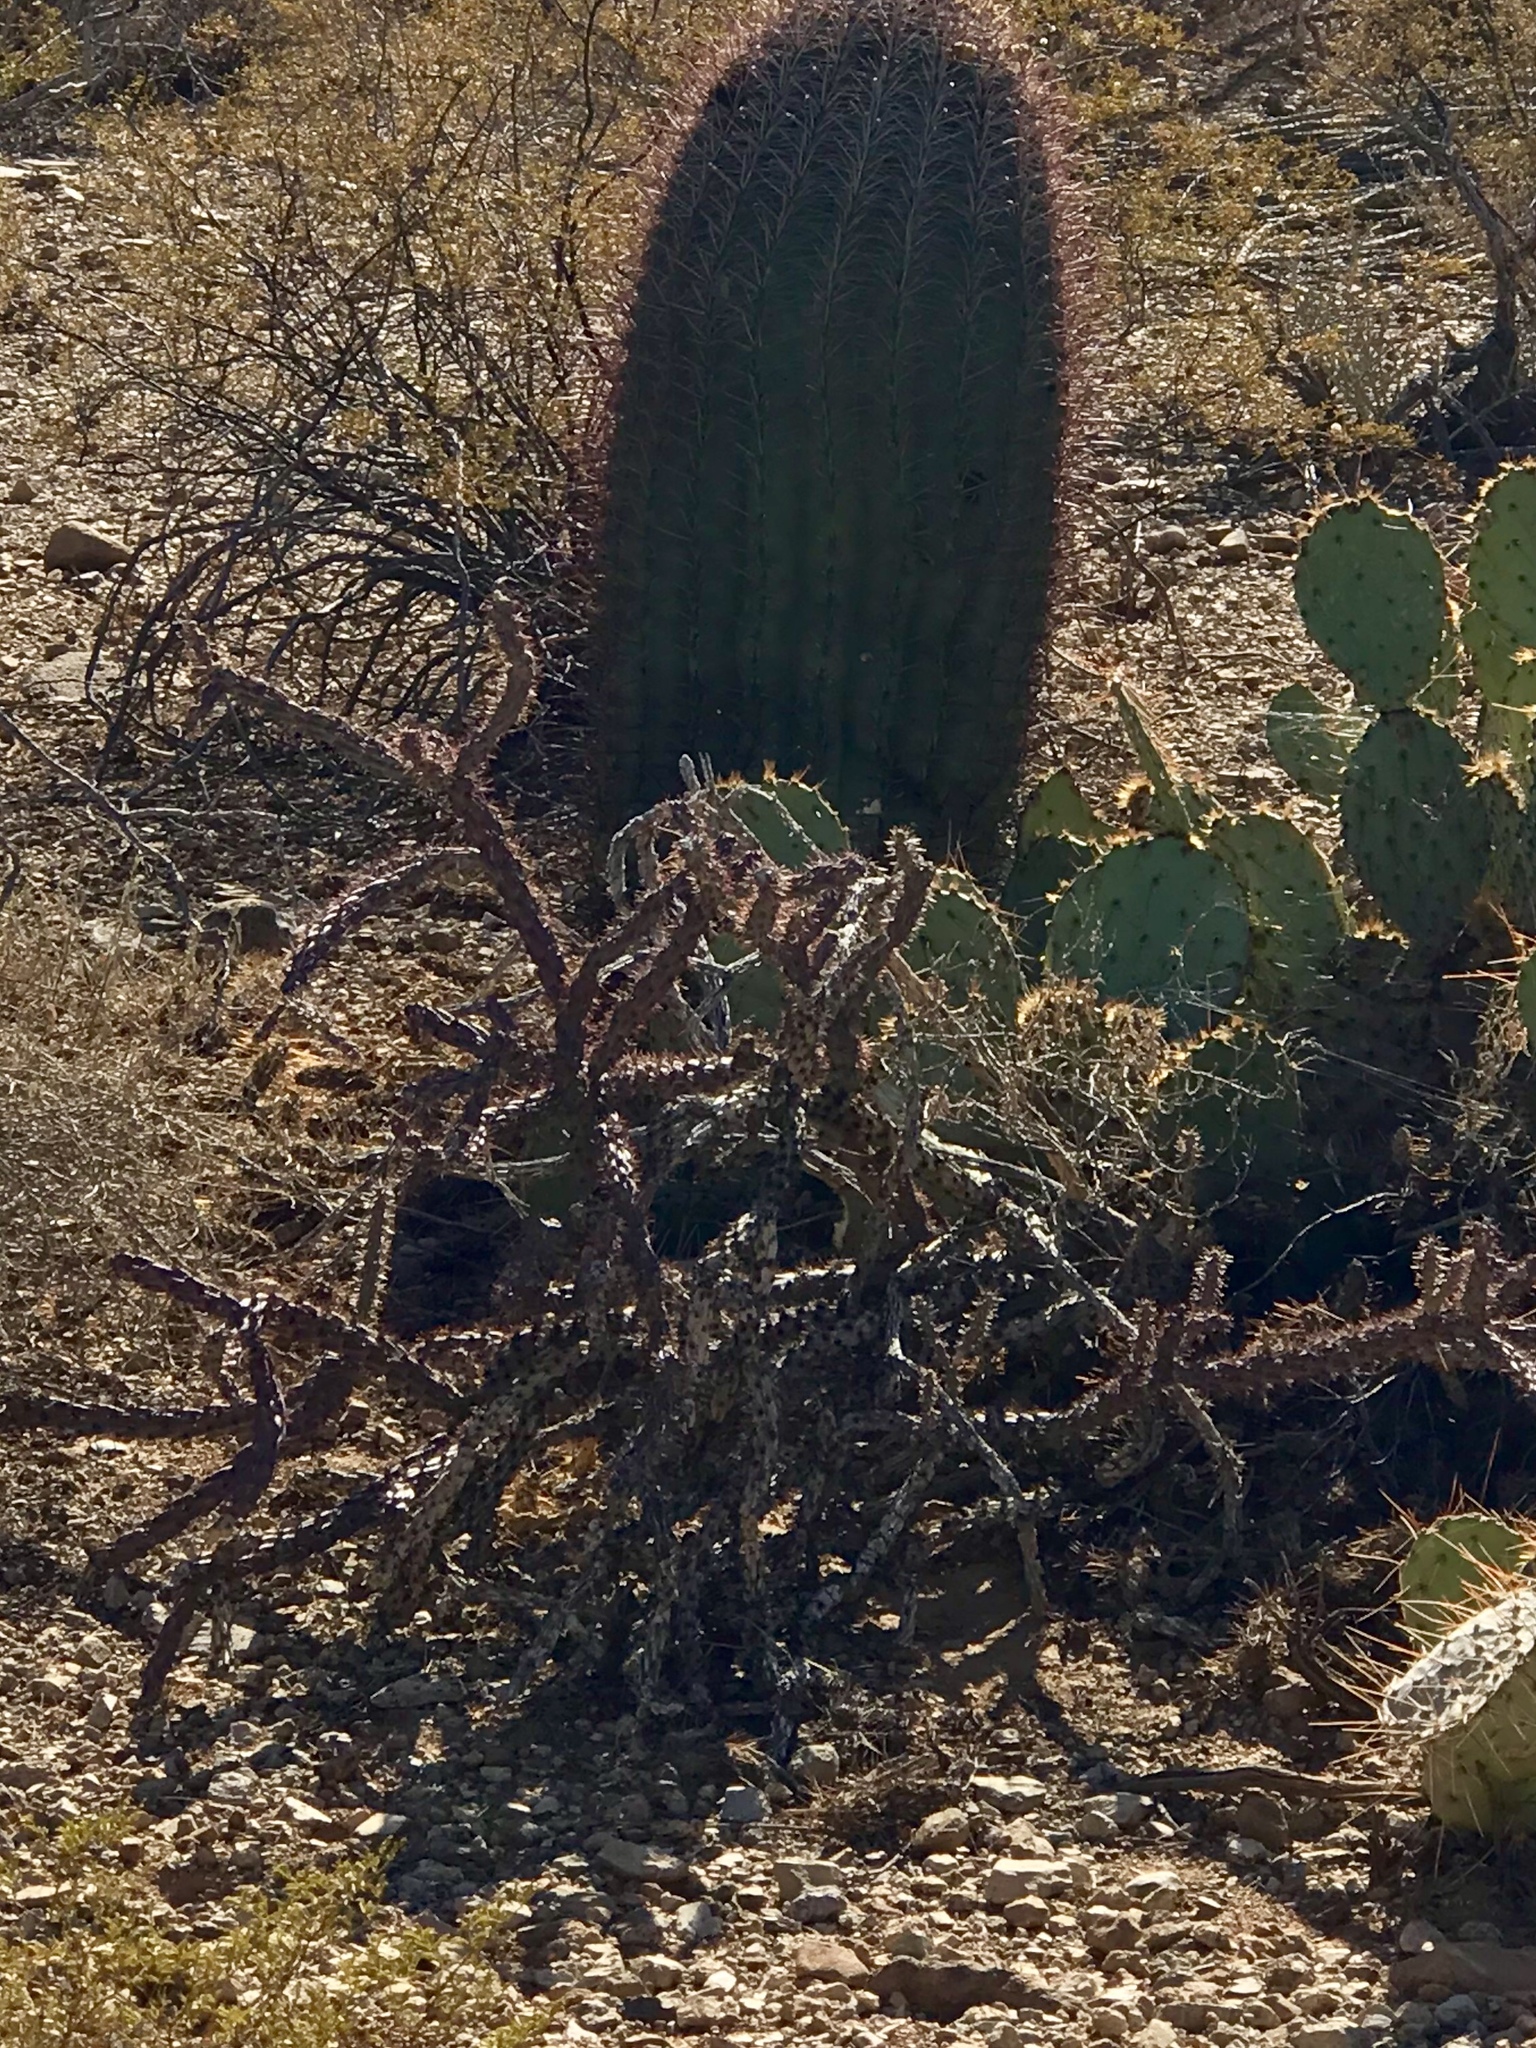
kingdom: Plantae
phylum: Tracheophyta
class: Magnoliopsida
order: Caryophyllales
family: Cactaceae
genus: Cylindropuntia
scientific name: Cylindropuntia thurberi
